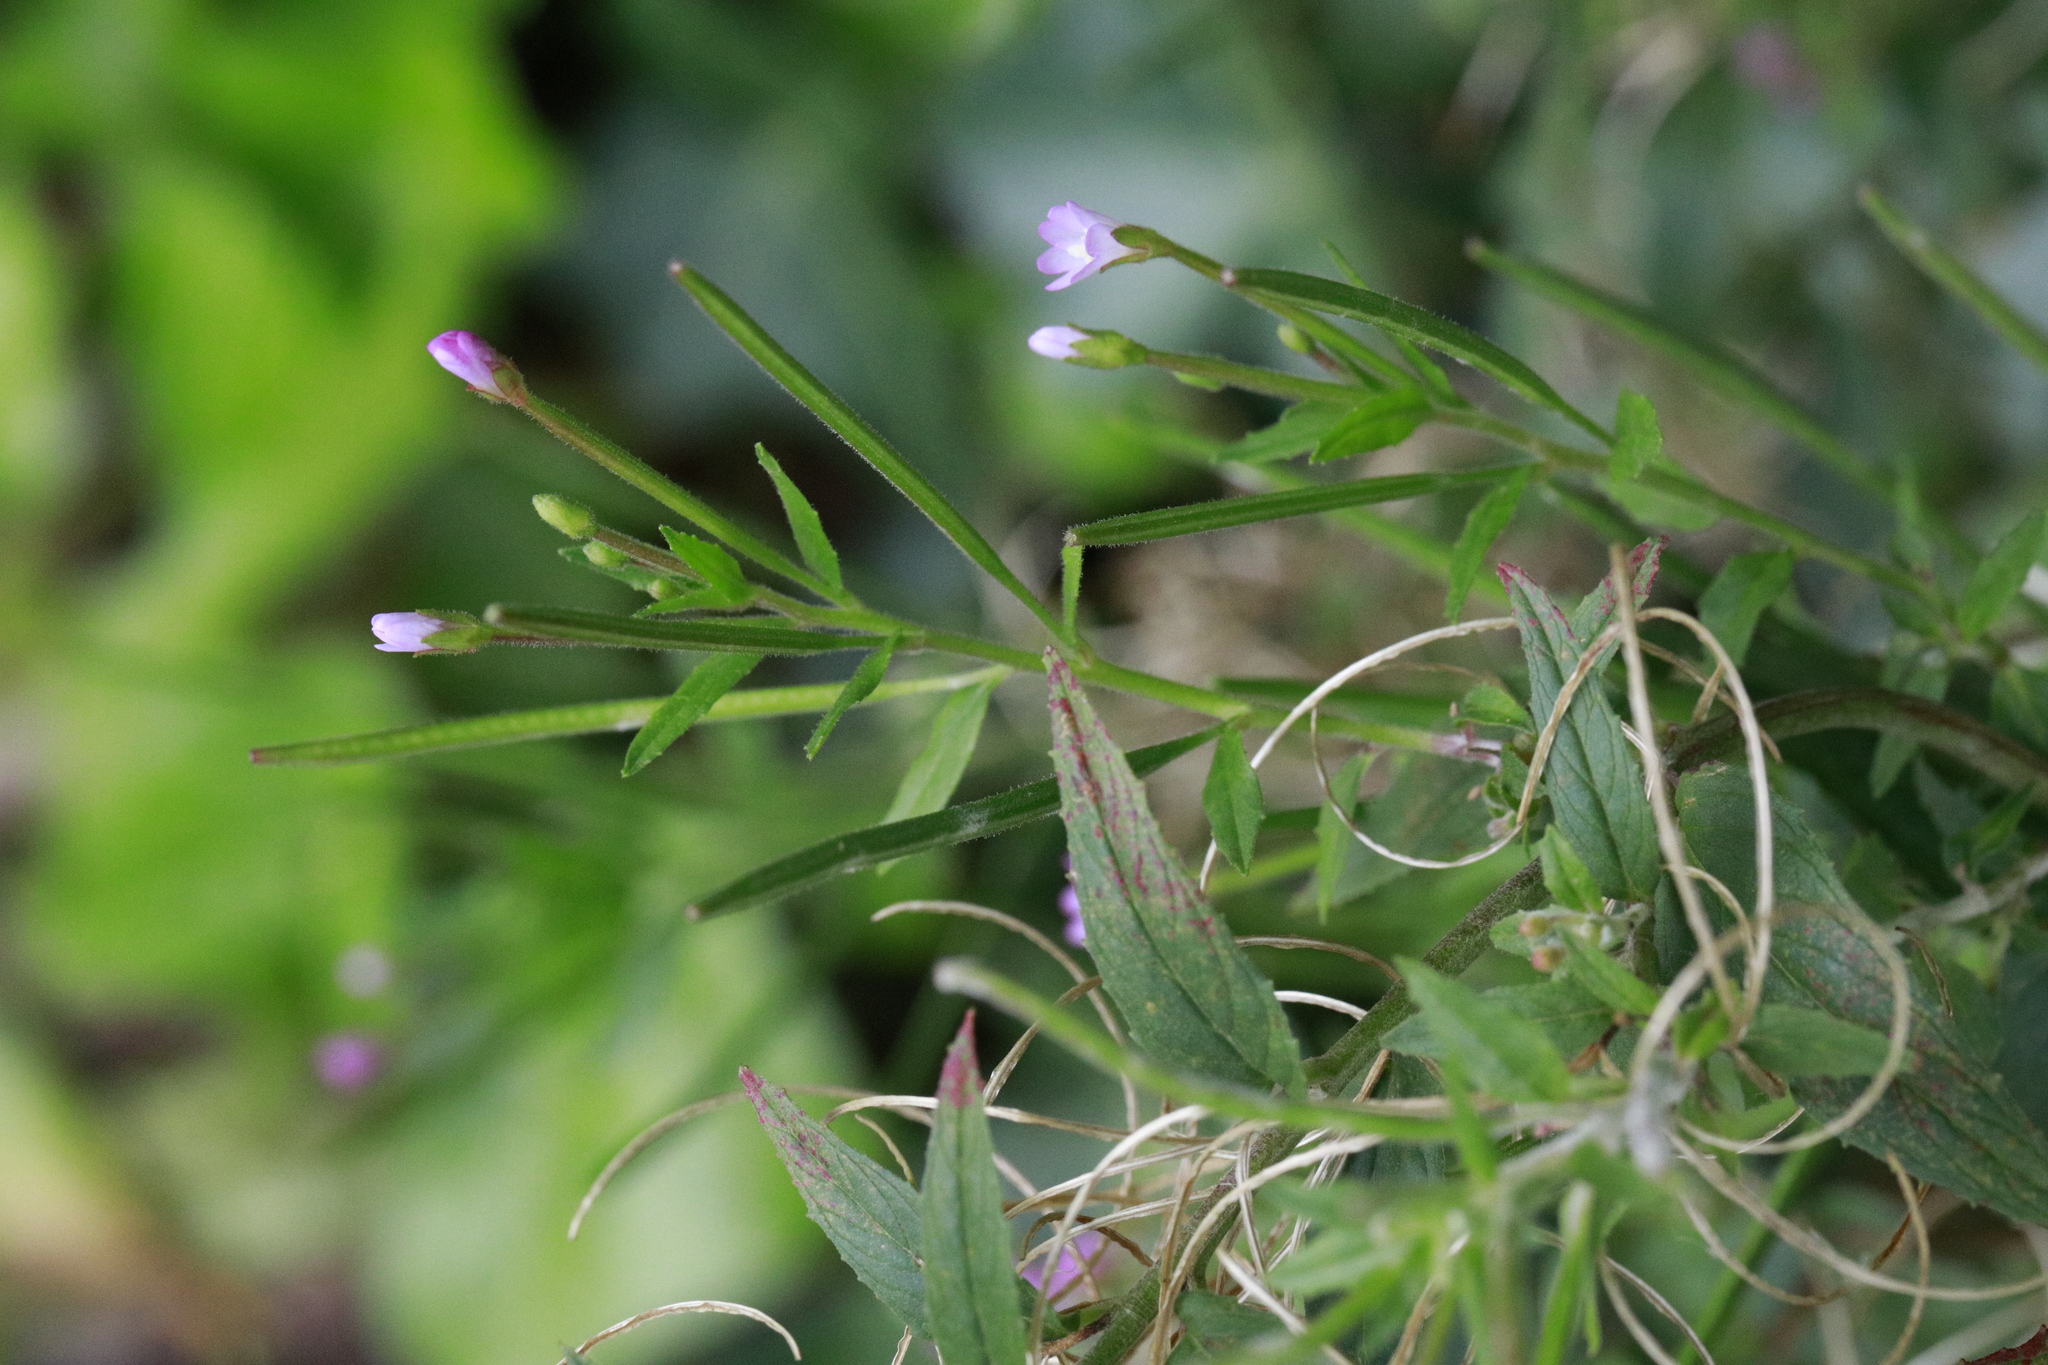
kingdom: Plantae
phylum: Tracheophyta
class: Magnoliopsida
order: Myrtales
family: Onagraceae
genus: Epilobium
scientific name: Epilobium ciliatum
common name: American willowherb
